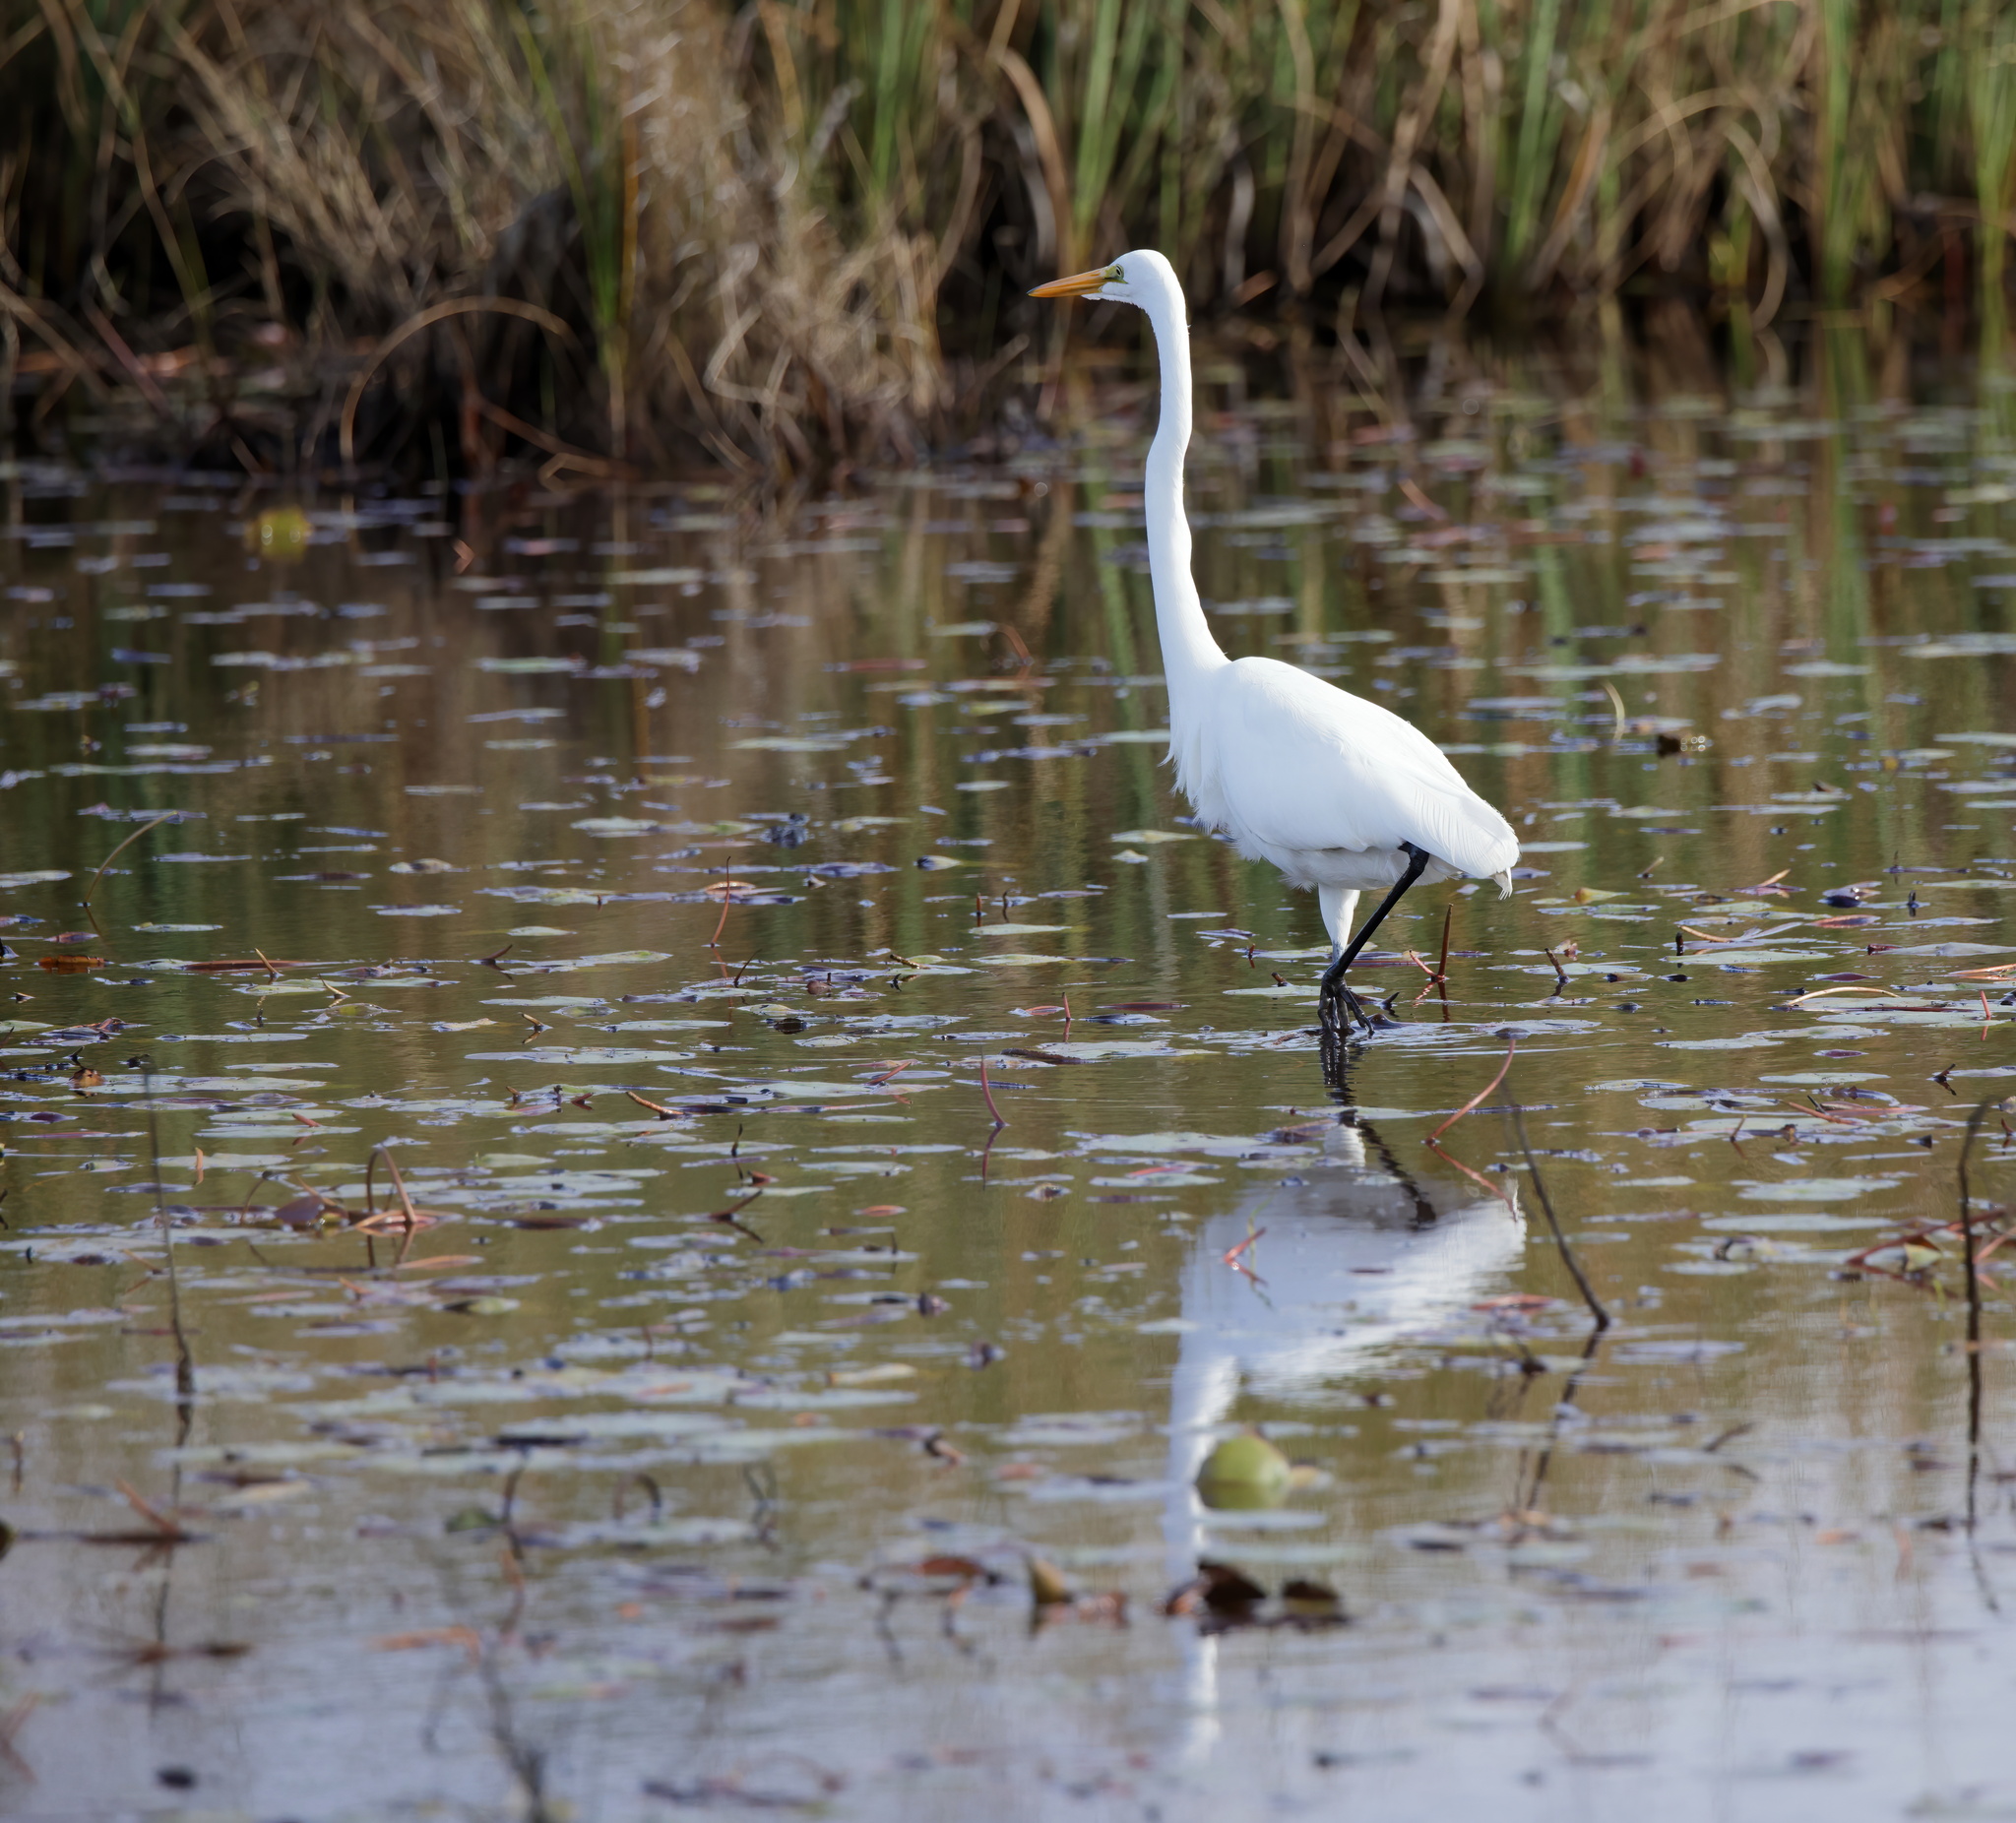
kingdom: Animalia
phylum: Chordata
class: Aves
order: Pelecaniformes
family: Ardeidae
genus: Ardea
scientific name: Ardea alba
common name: Great egret
